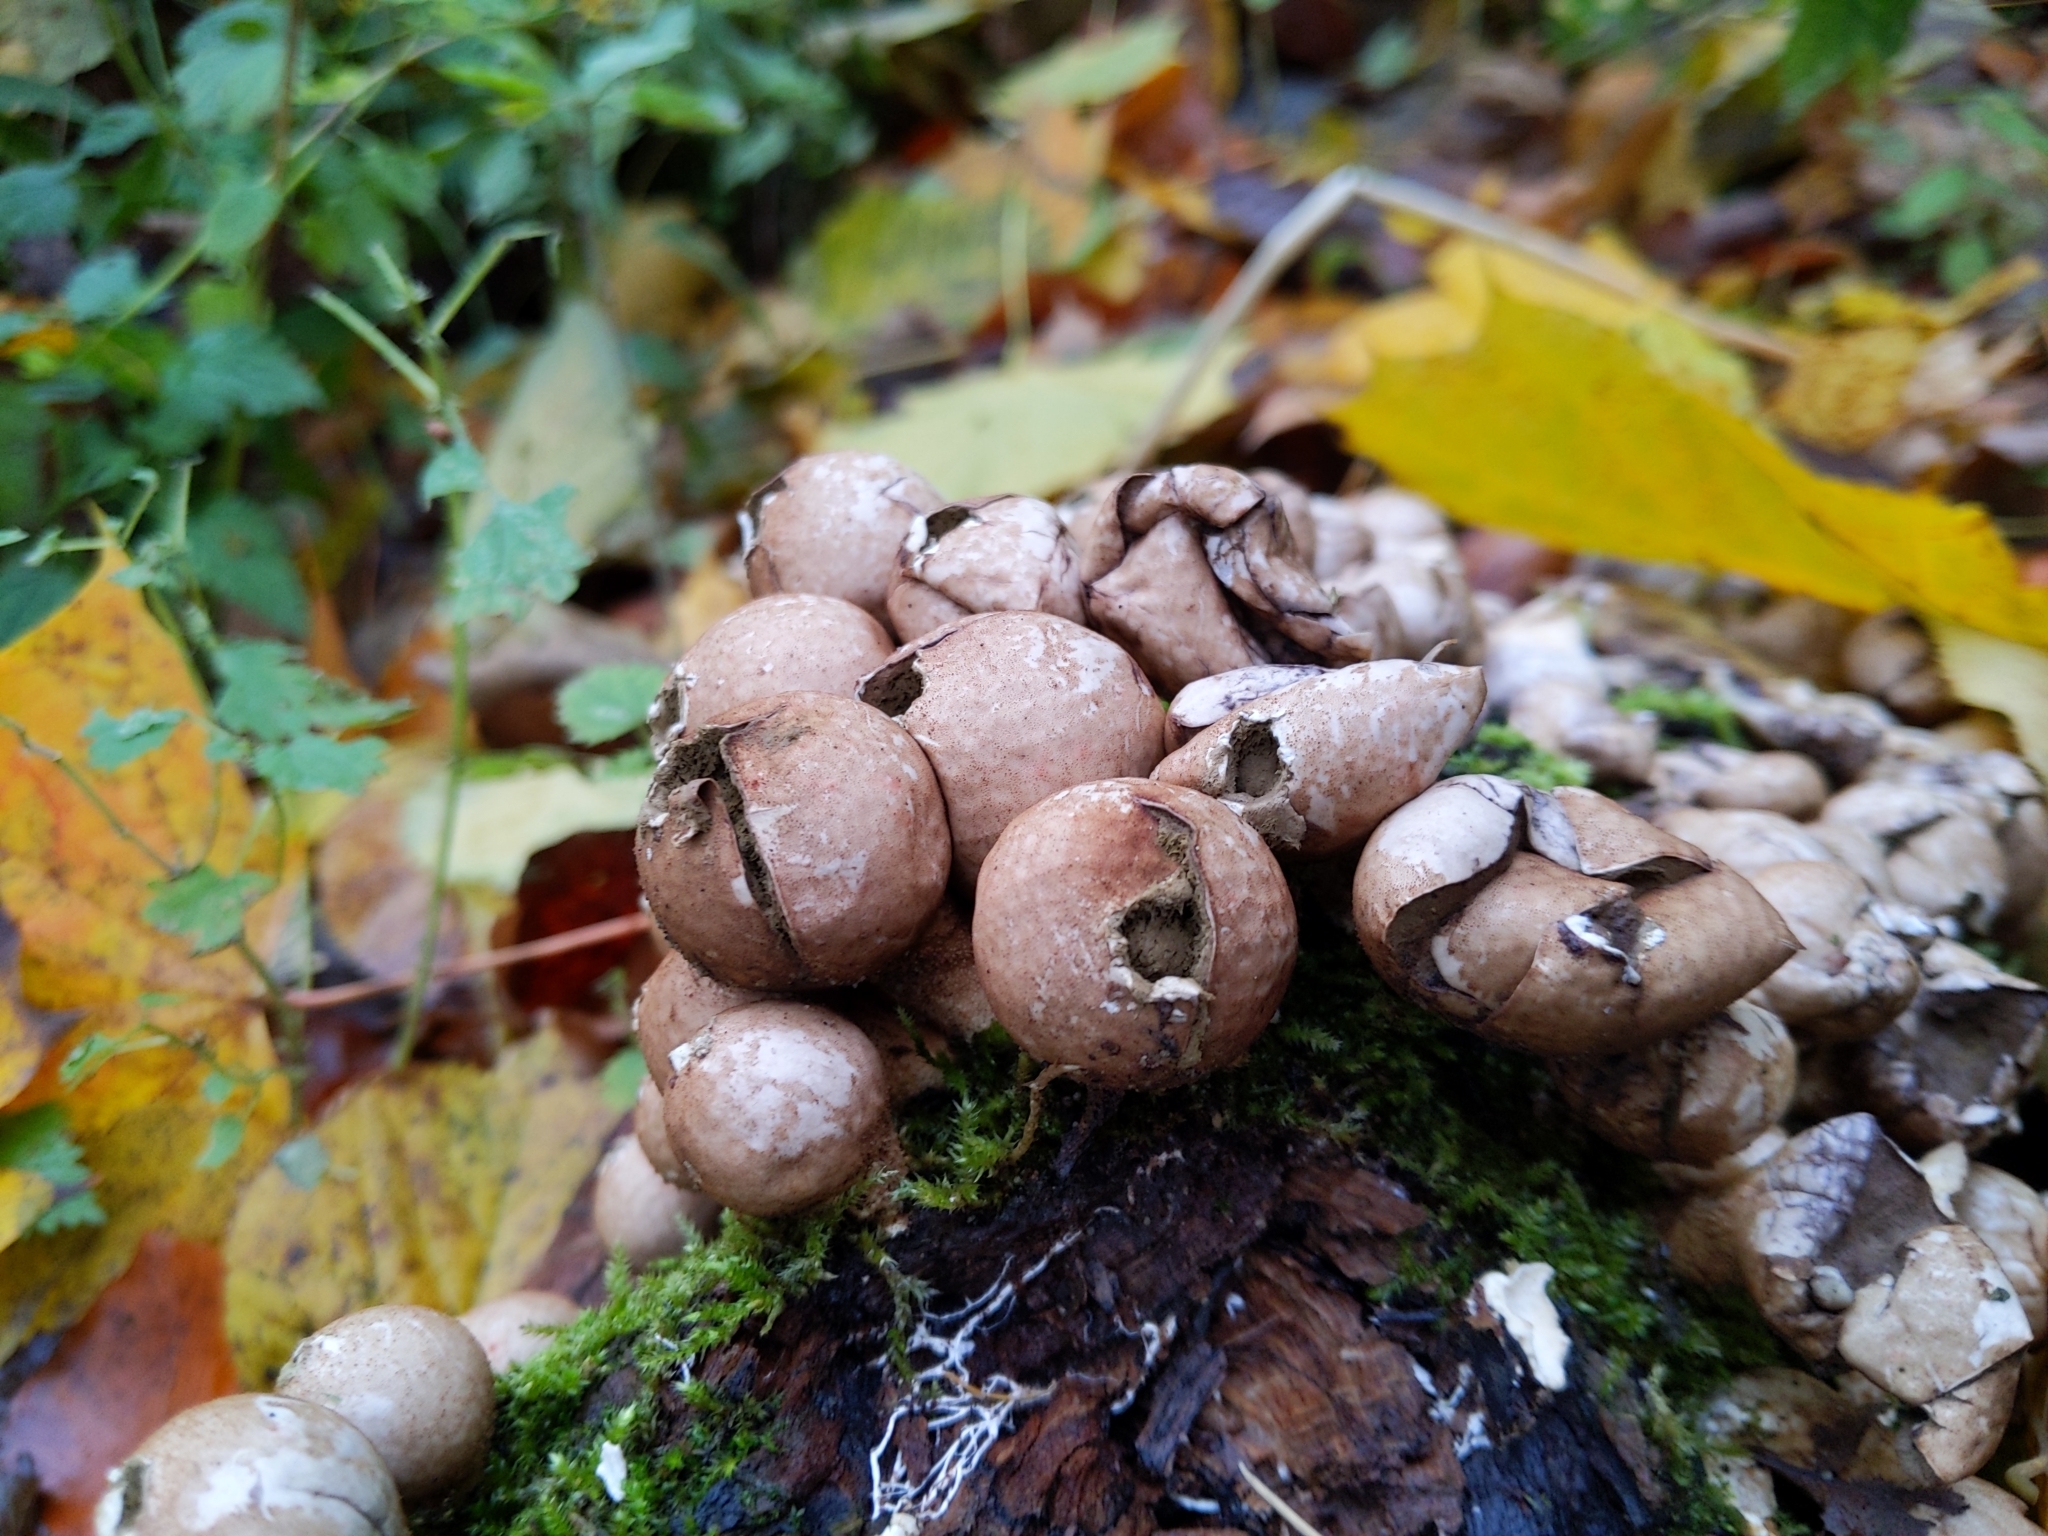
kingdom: Fungi
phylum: Basidiomycota
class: Agaricomycetes
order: Agaricales
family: Lycoperdaceae
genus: Apioperdon
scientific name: Apioperdon pyriforme
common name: Pear-shaped puffball
